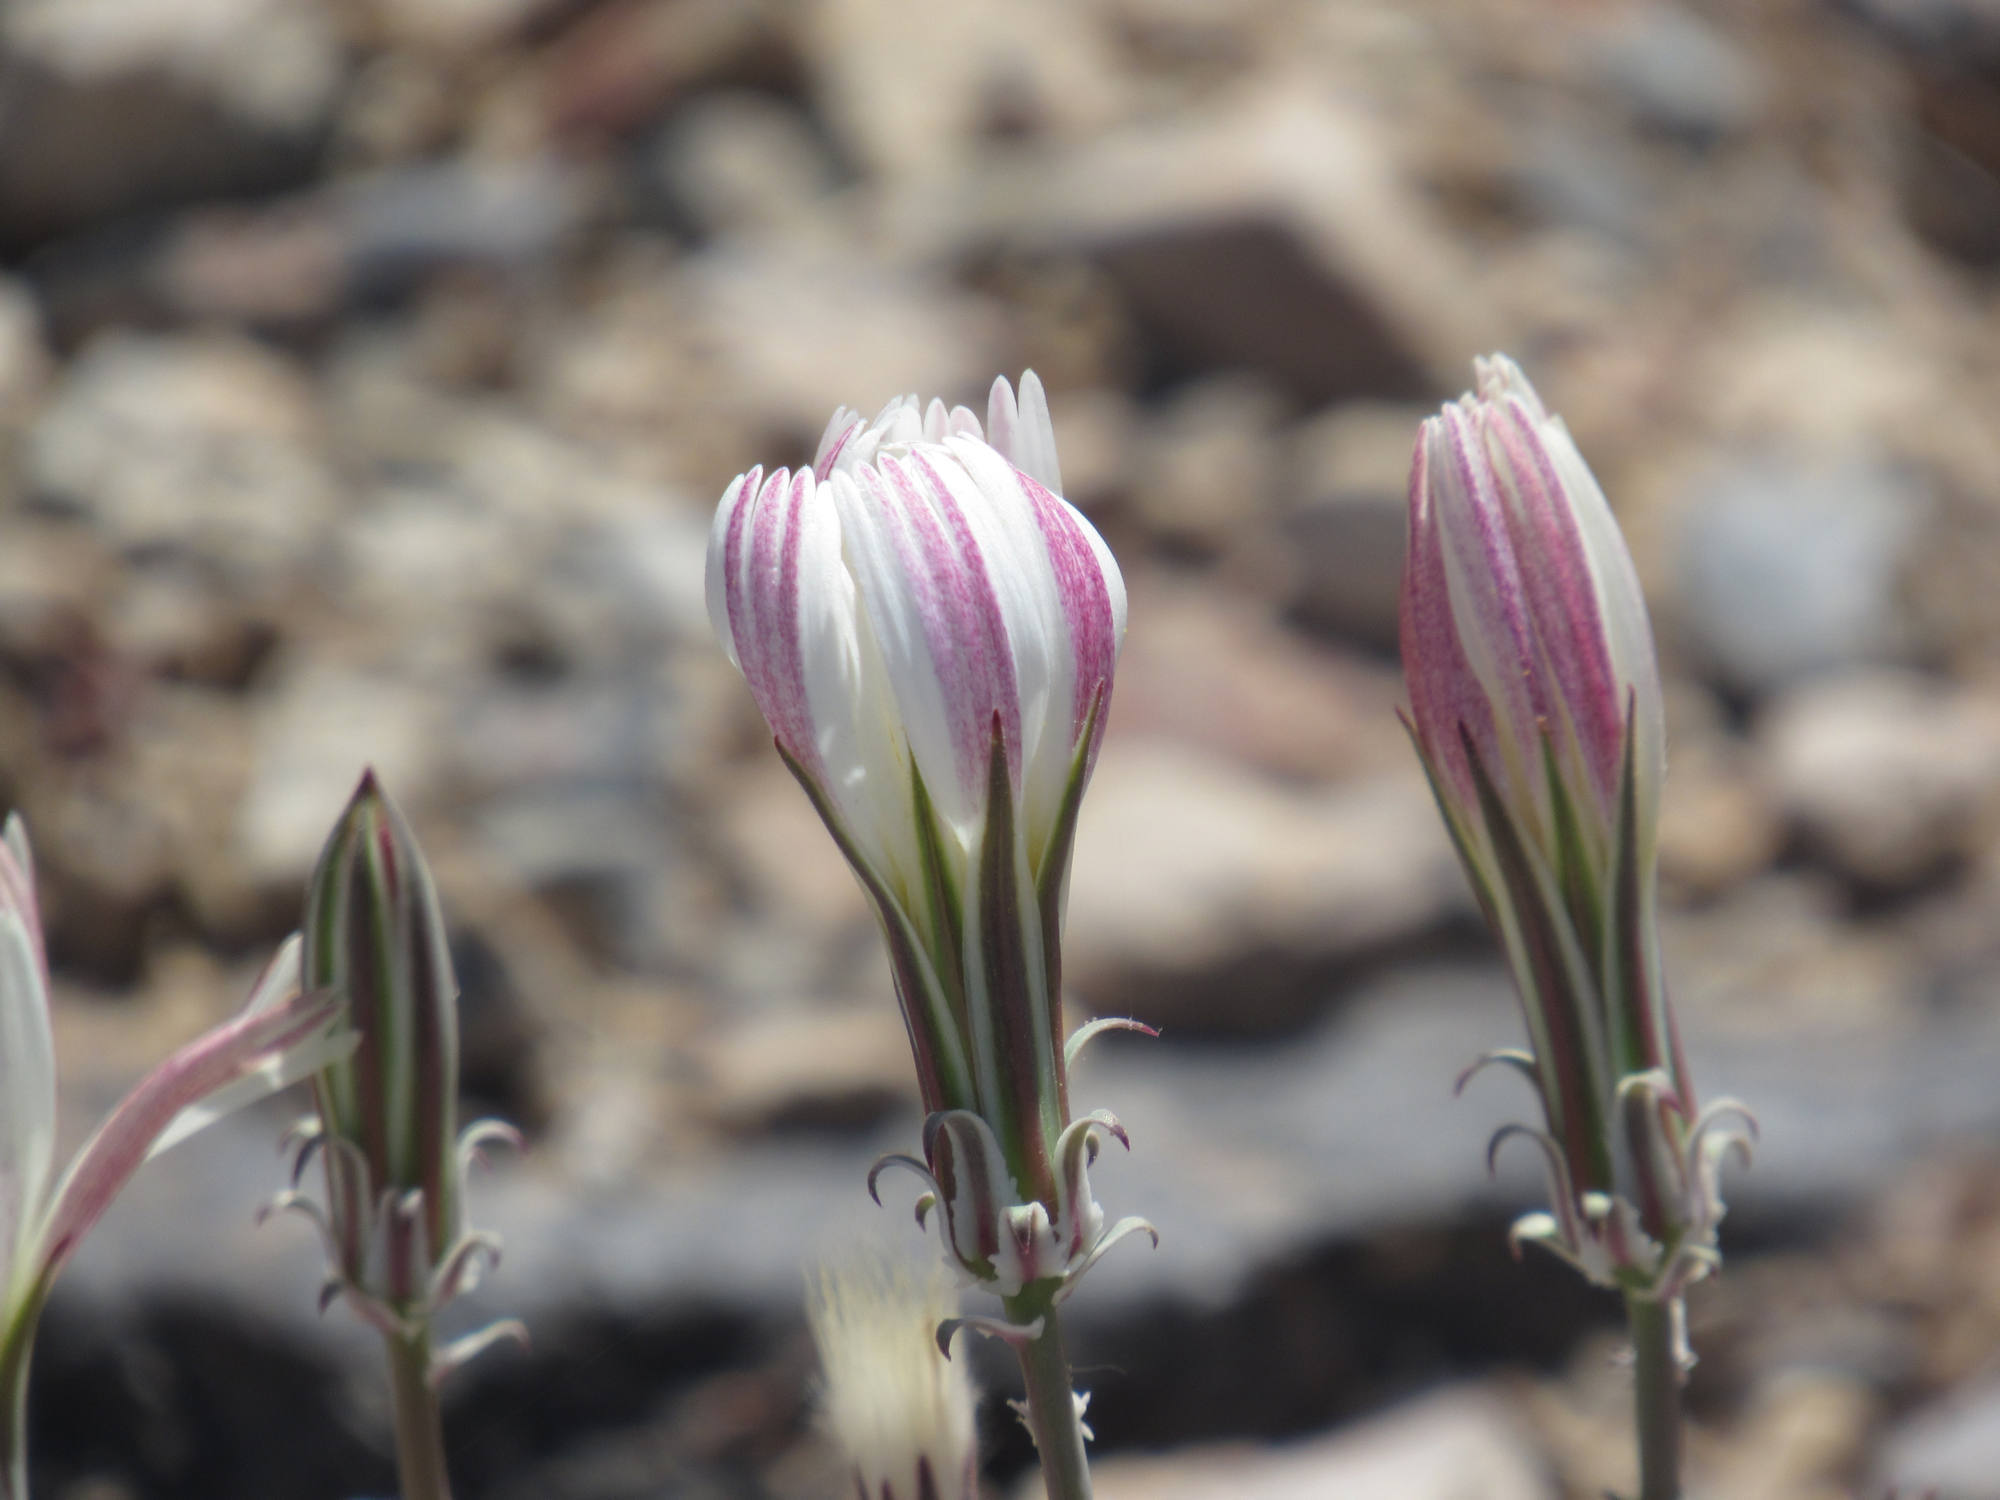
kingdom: Plantae
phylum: Tracheophyta
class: Magnoliopsida
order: Asterales
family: Asteraceae
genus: Rafinesquia
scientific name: Rafinesquia neomexicana
